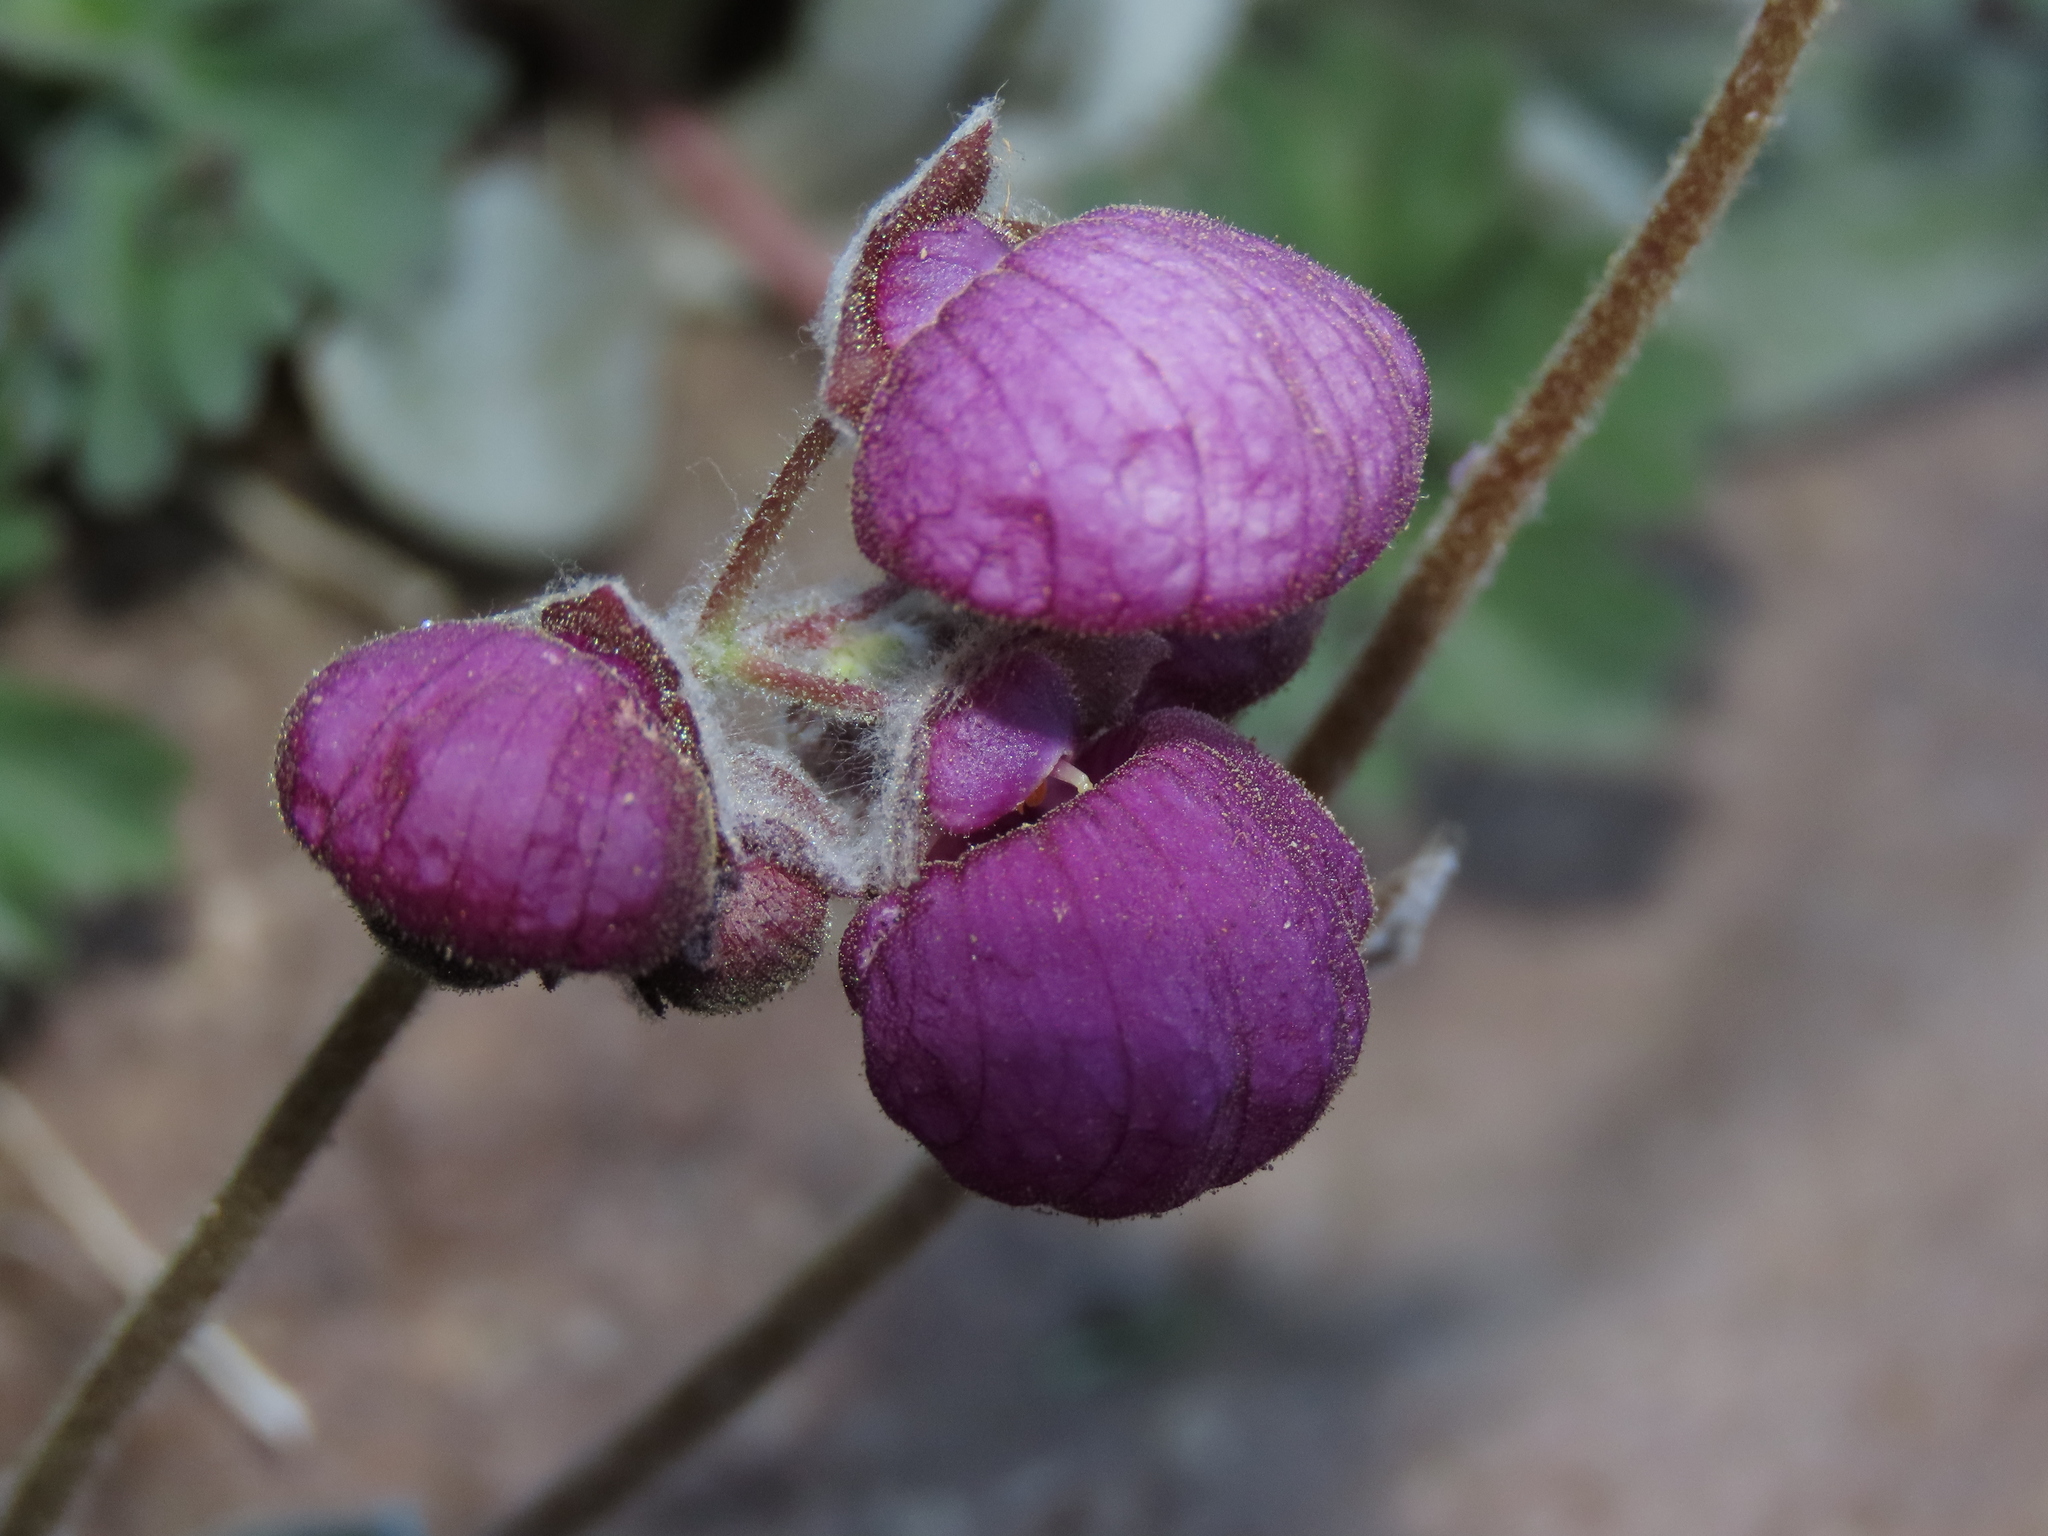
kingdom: Plantae
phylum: Tracheophyta
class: Magnoliopsida
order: Lamiales
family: Calceolariaceae
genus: Calceolaria
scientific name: Calceolaria arachnoidea
